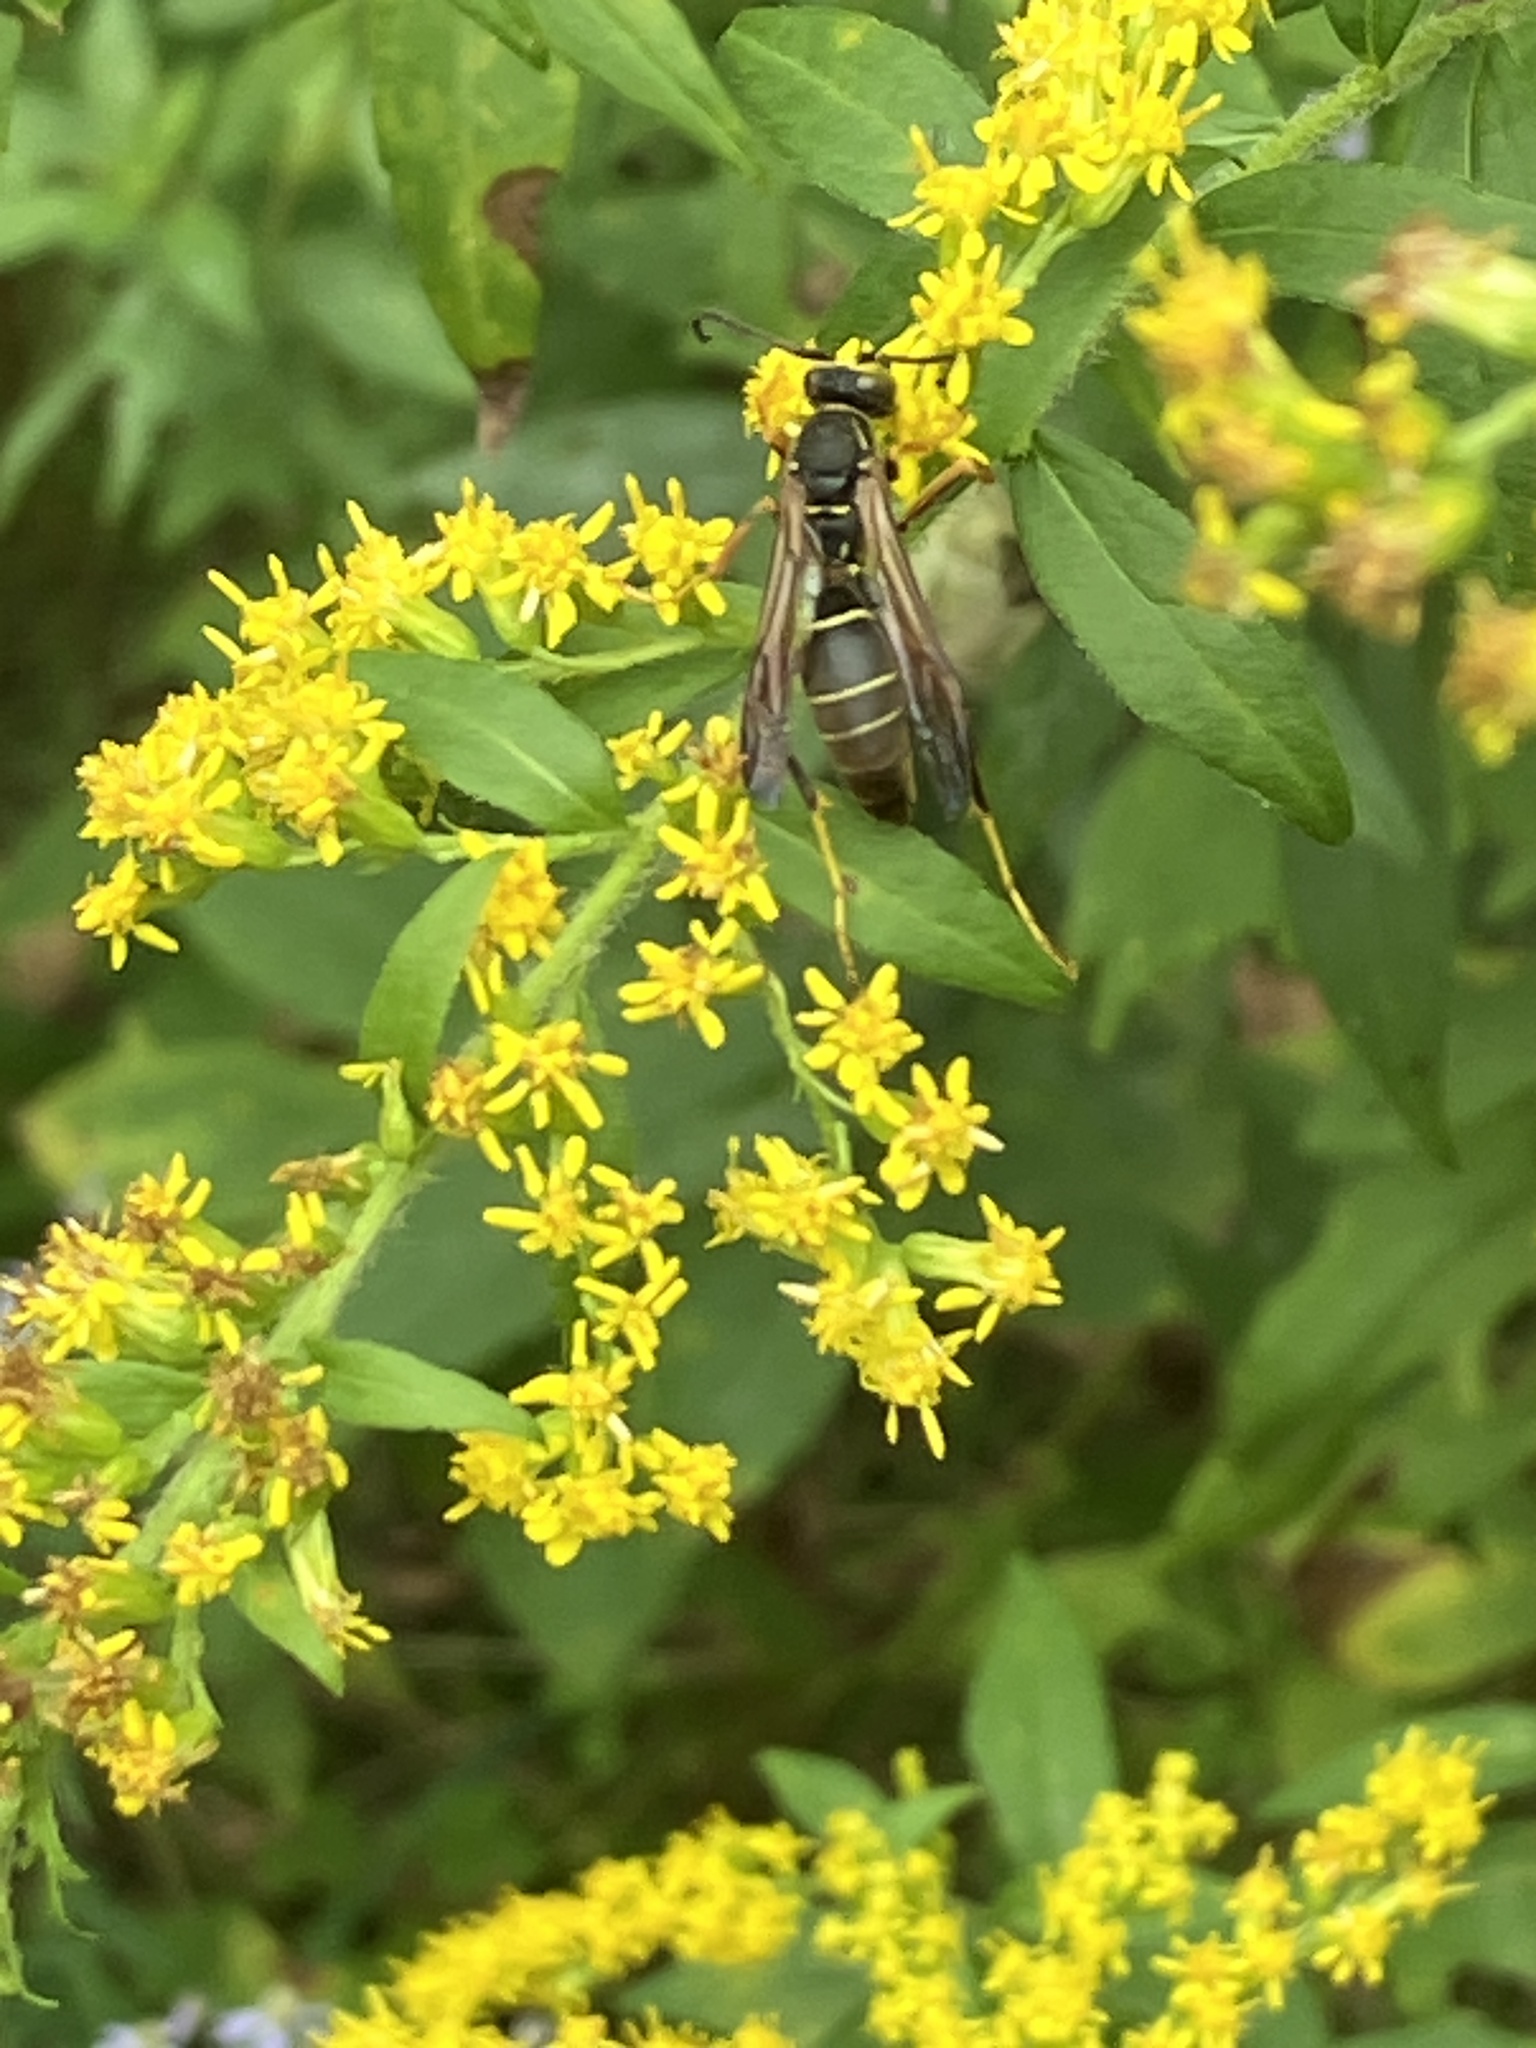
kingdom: Animalia
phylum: Arthropoda
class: Insecta
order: Hymenoptera
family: Eumenidae
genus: Polistes
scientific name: Polistes fuscatus
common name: Dark paper wasp
